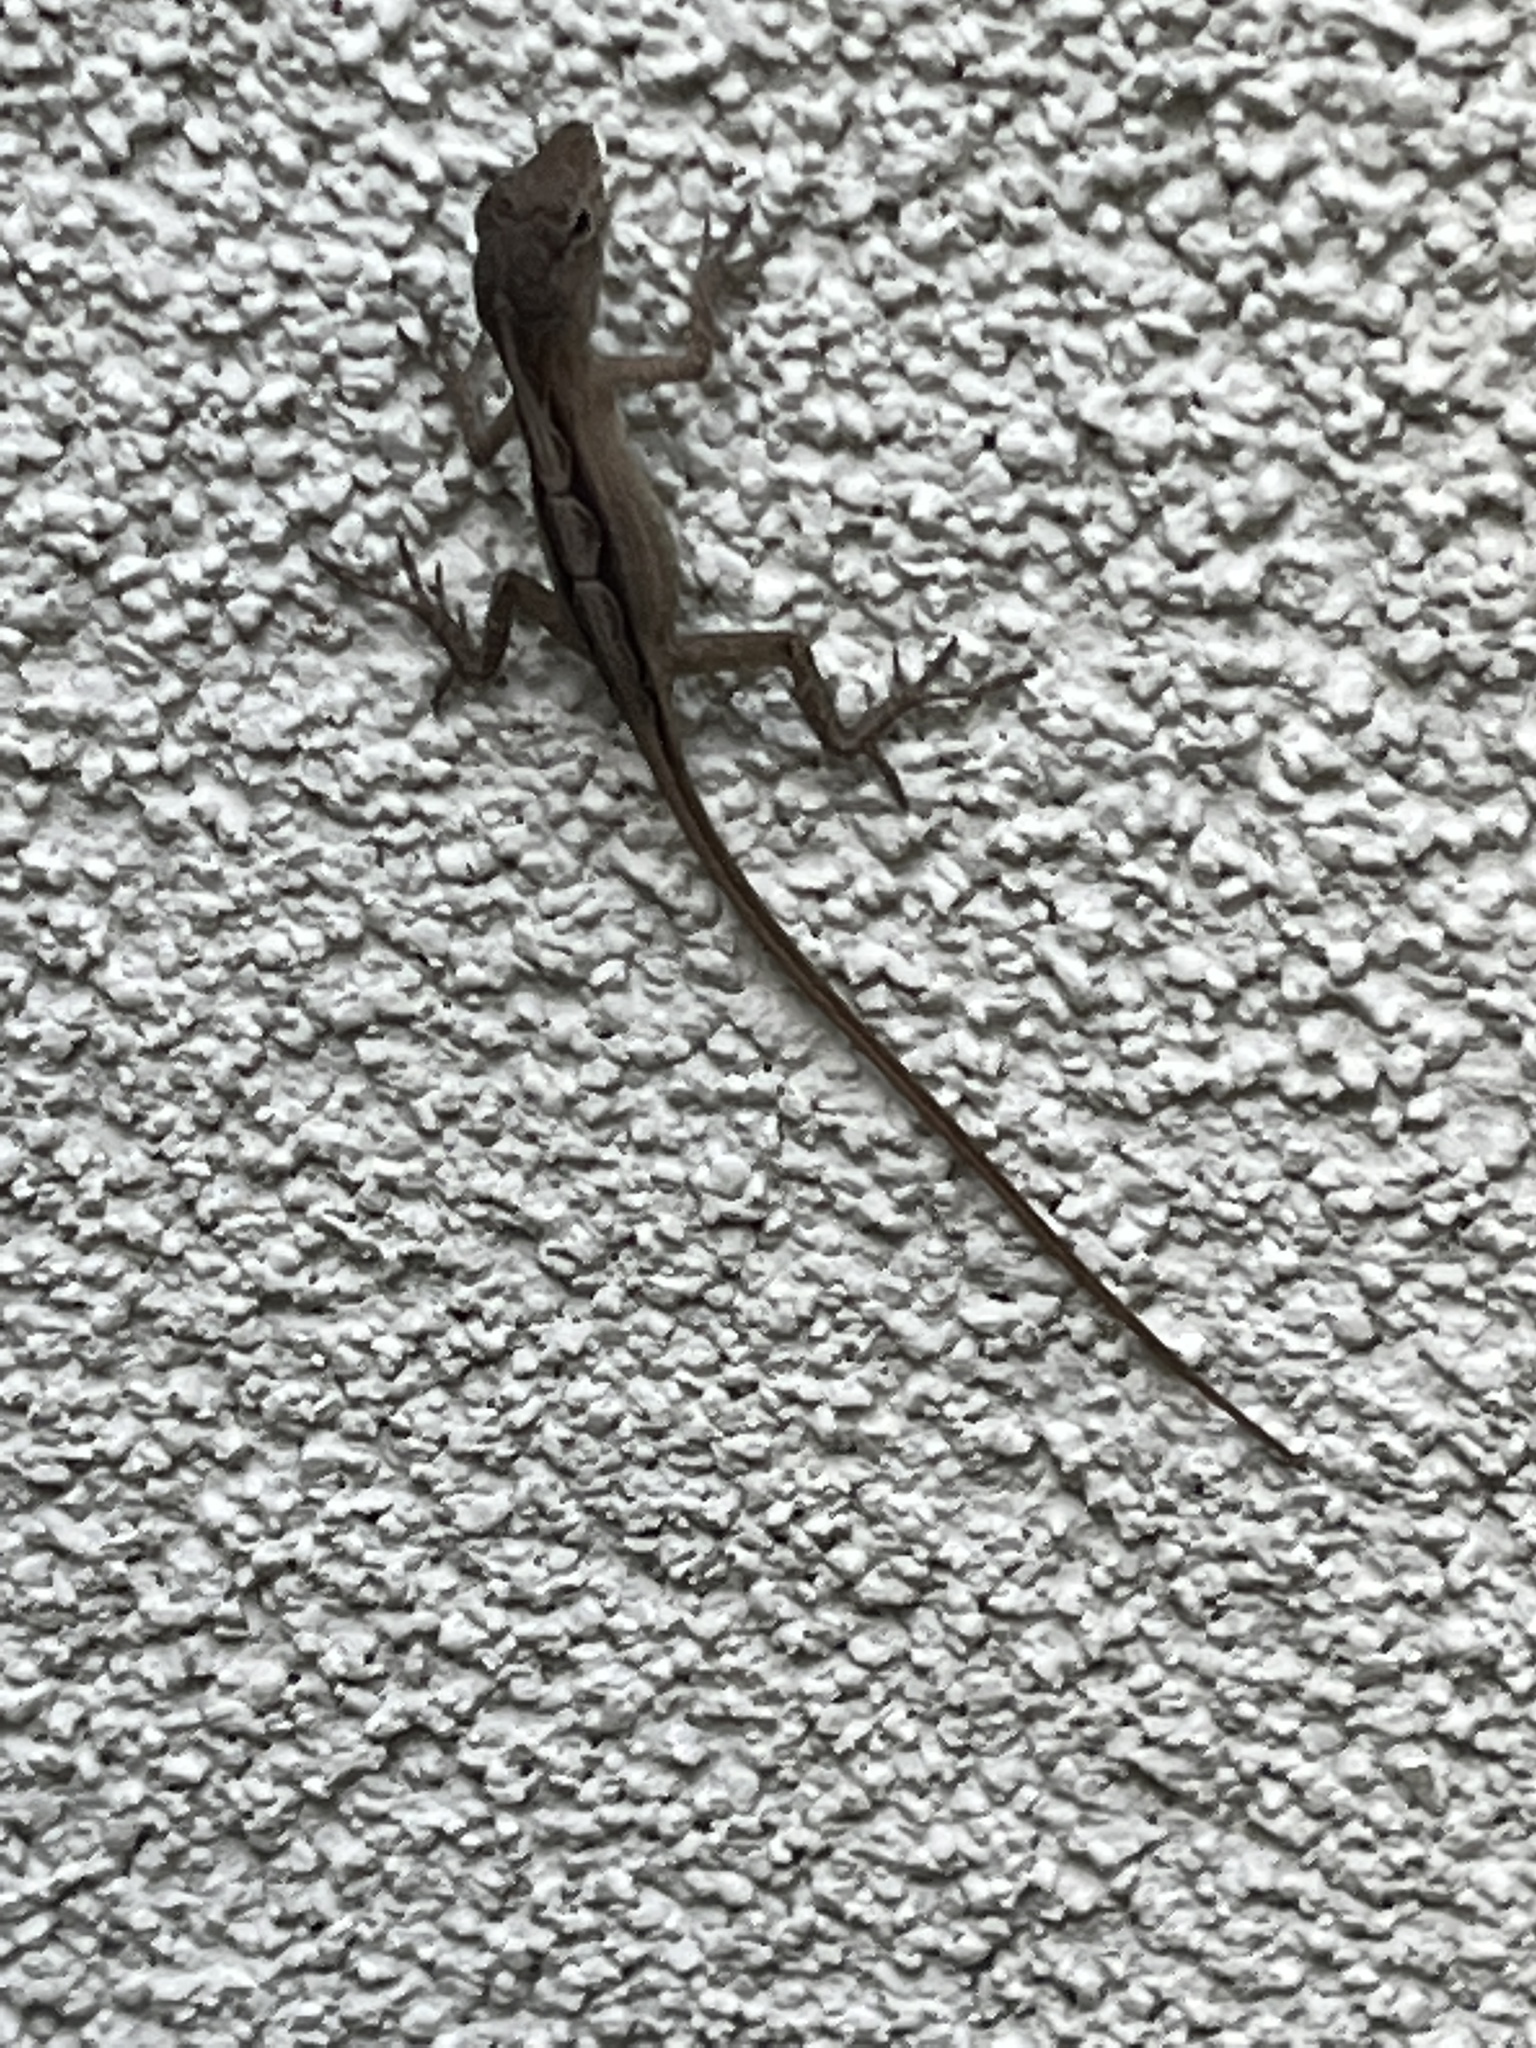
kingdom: Animalia
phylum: Chordata
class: Squamata
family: Dactyloidae
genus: Anolis
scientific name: Anolis sagrei
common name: Brown anole
